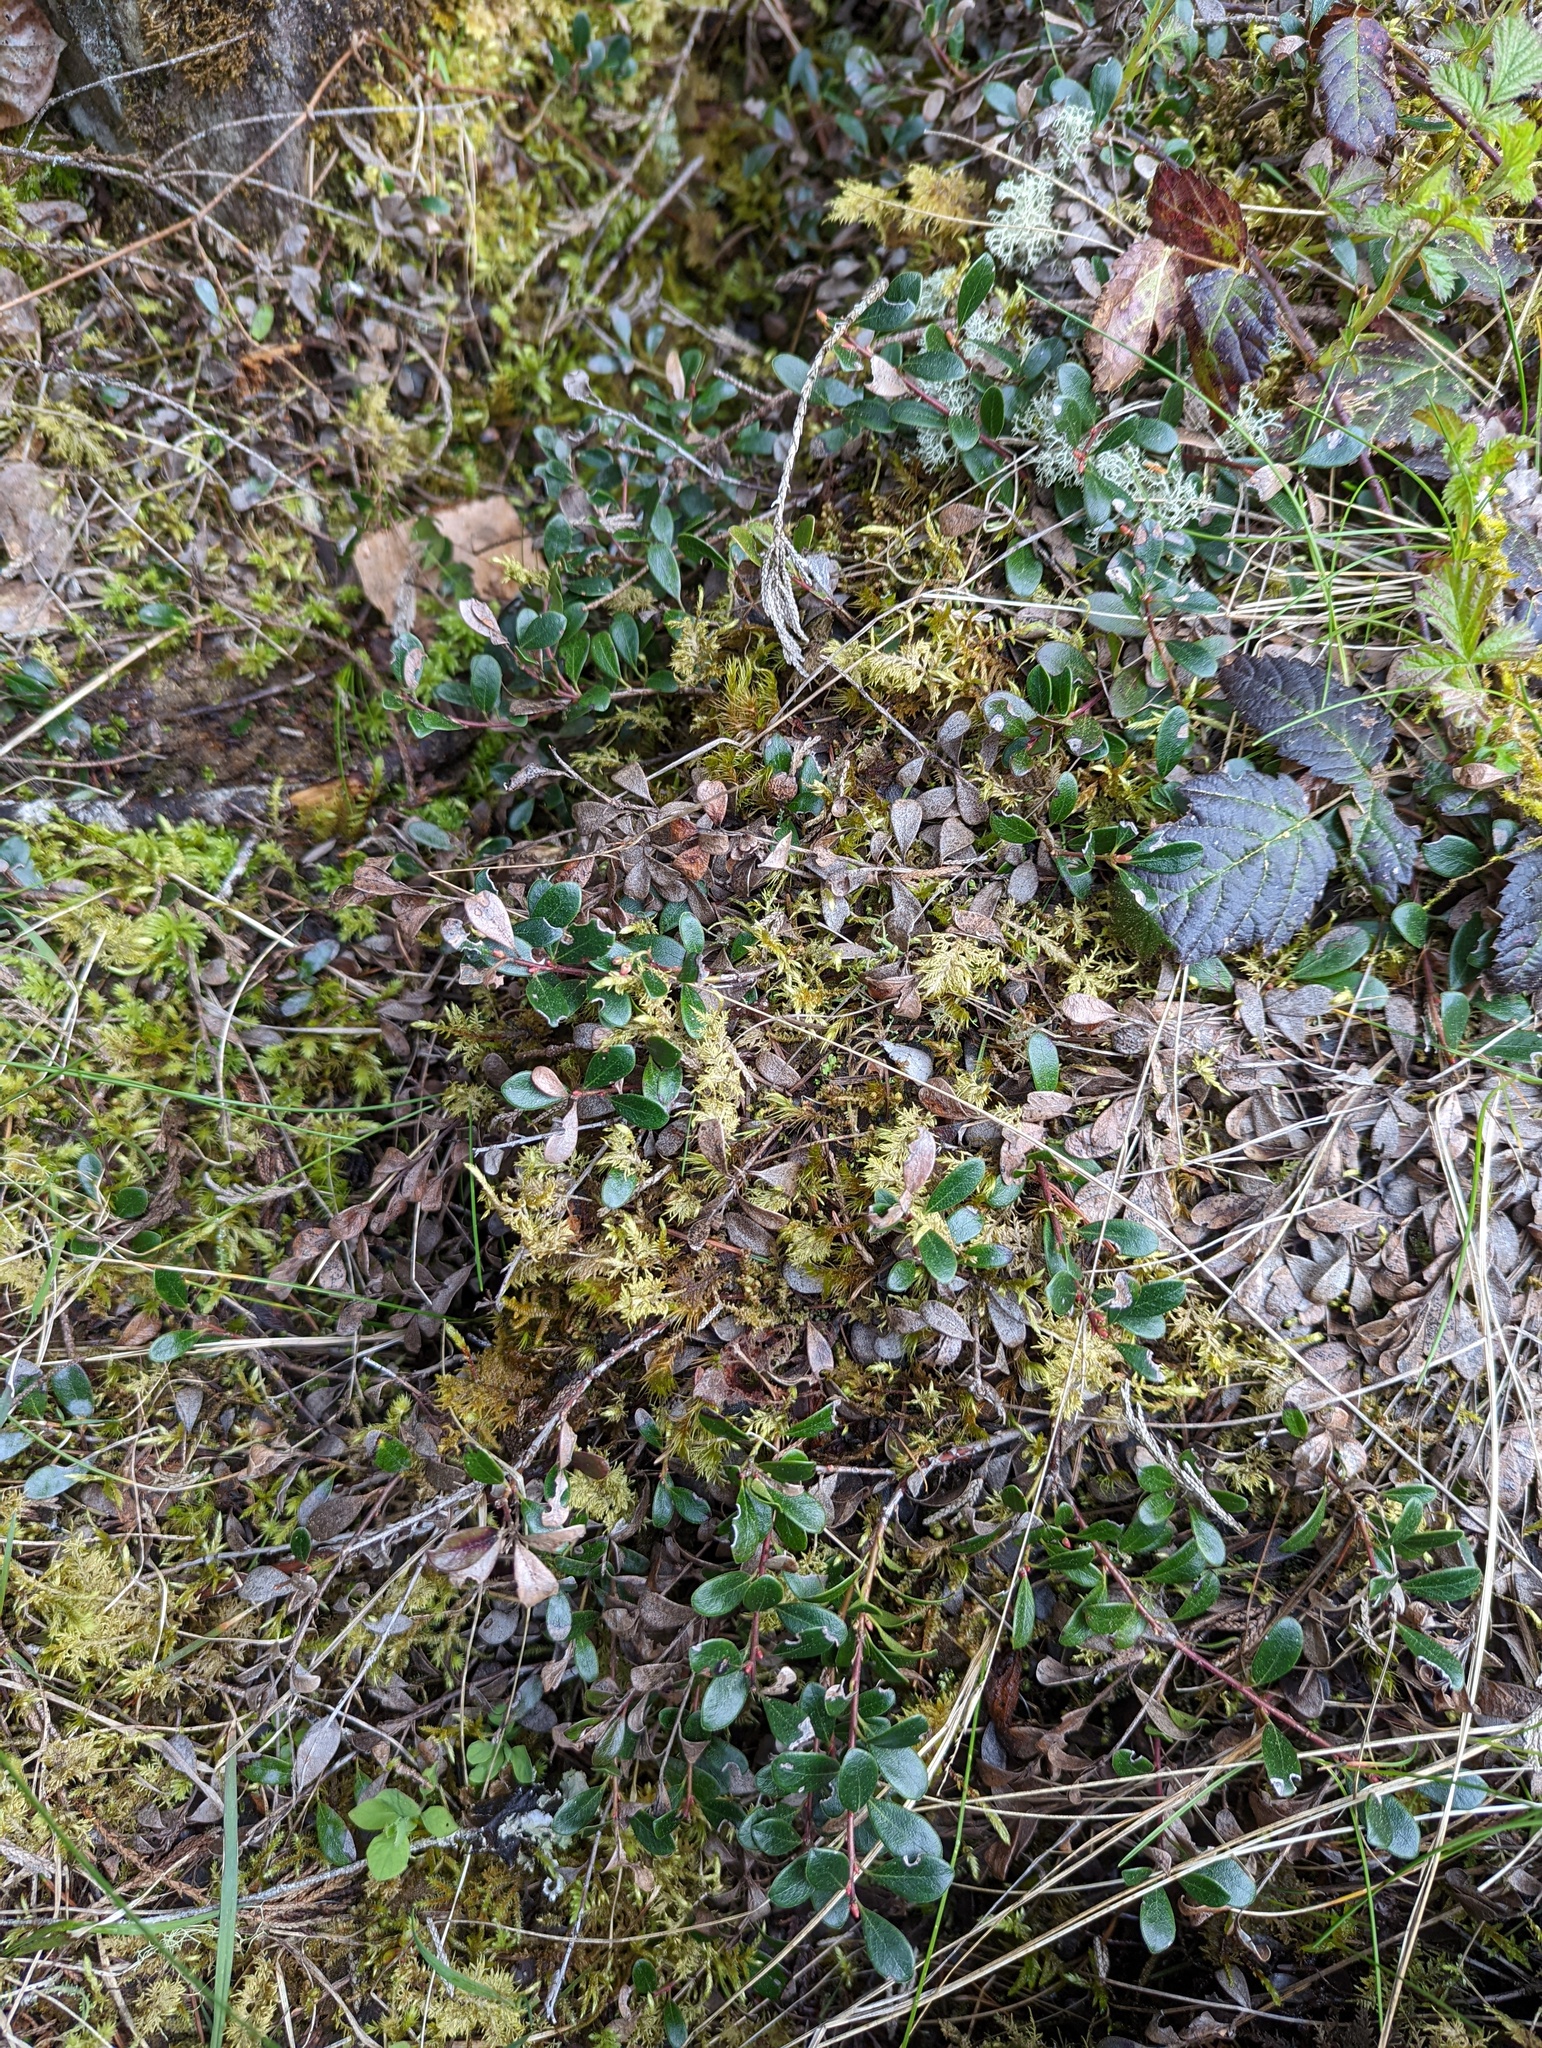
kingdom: Plantae
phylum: Tracheophyta
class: Magnoliopsida
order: Ericales
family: Ericaceae
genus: Arctostaphylos
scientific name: Arctostaphylos uva-ursi
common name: Bearberry
